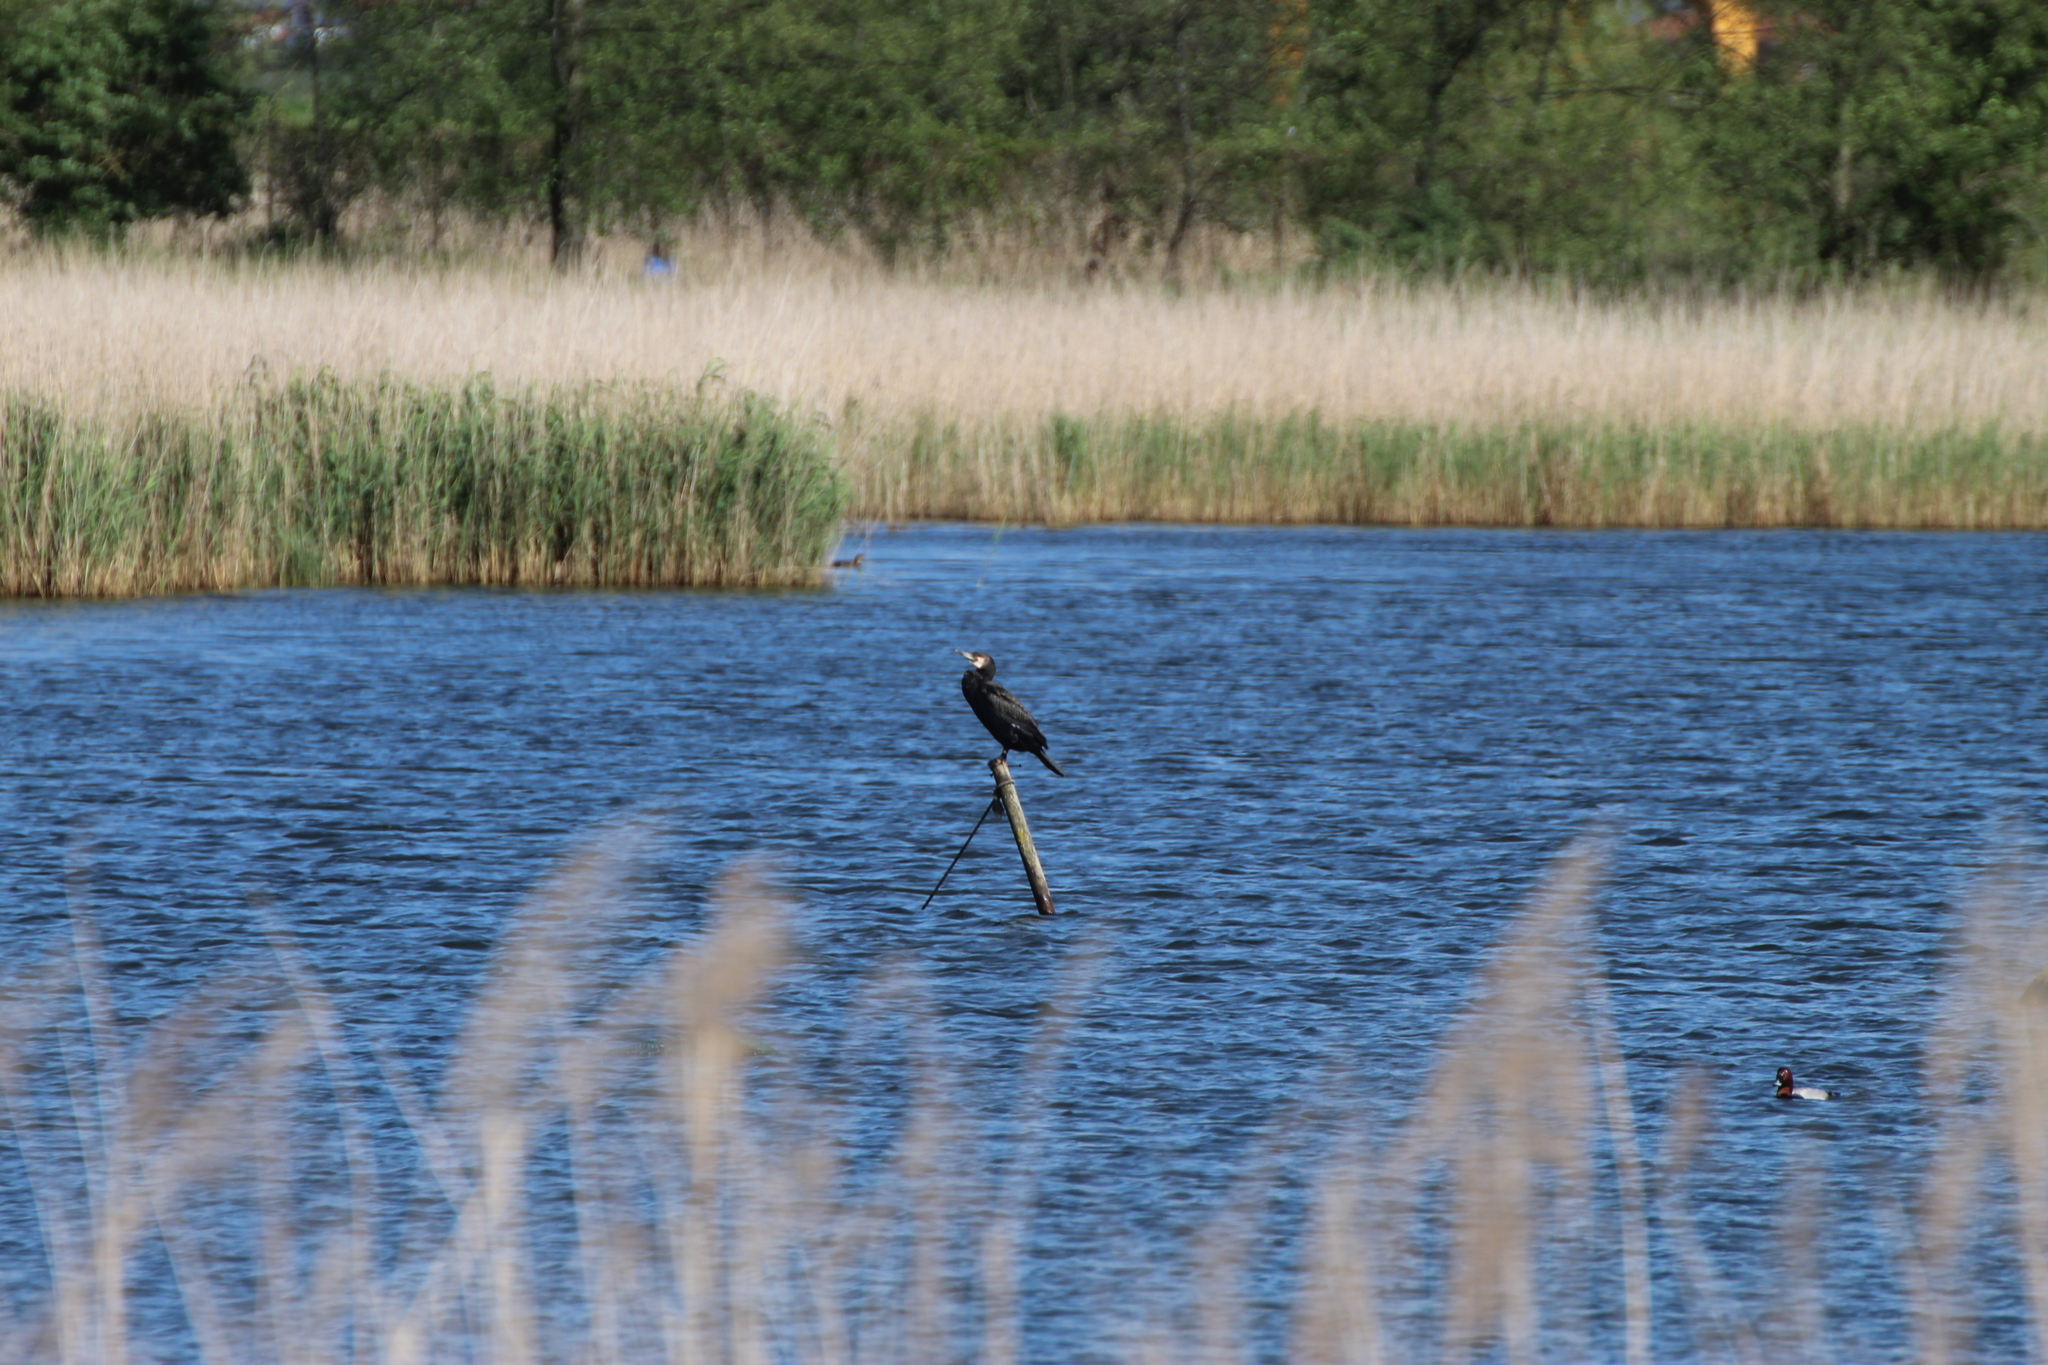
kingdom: Animalia
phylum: Chordata
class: Aves
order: Suliformes
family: Phalacrocoracidae
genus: Phalacrocorax
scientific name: Phalacrocorax carbo
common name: Great cormorant
